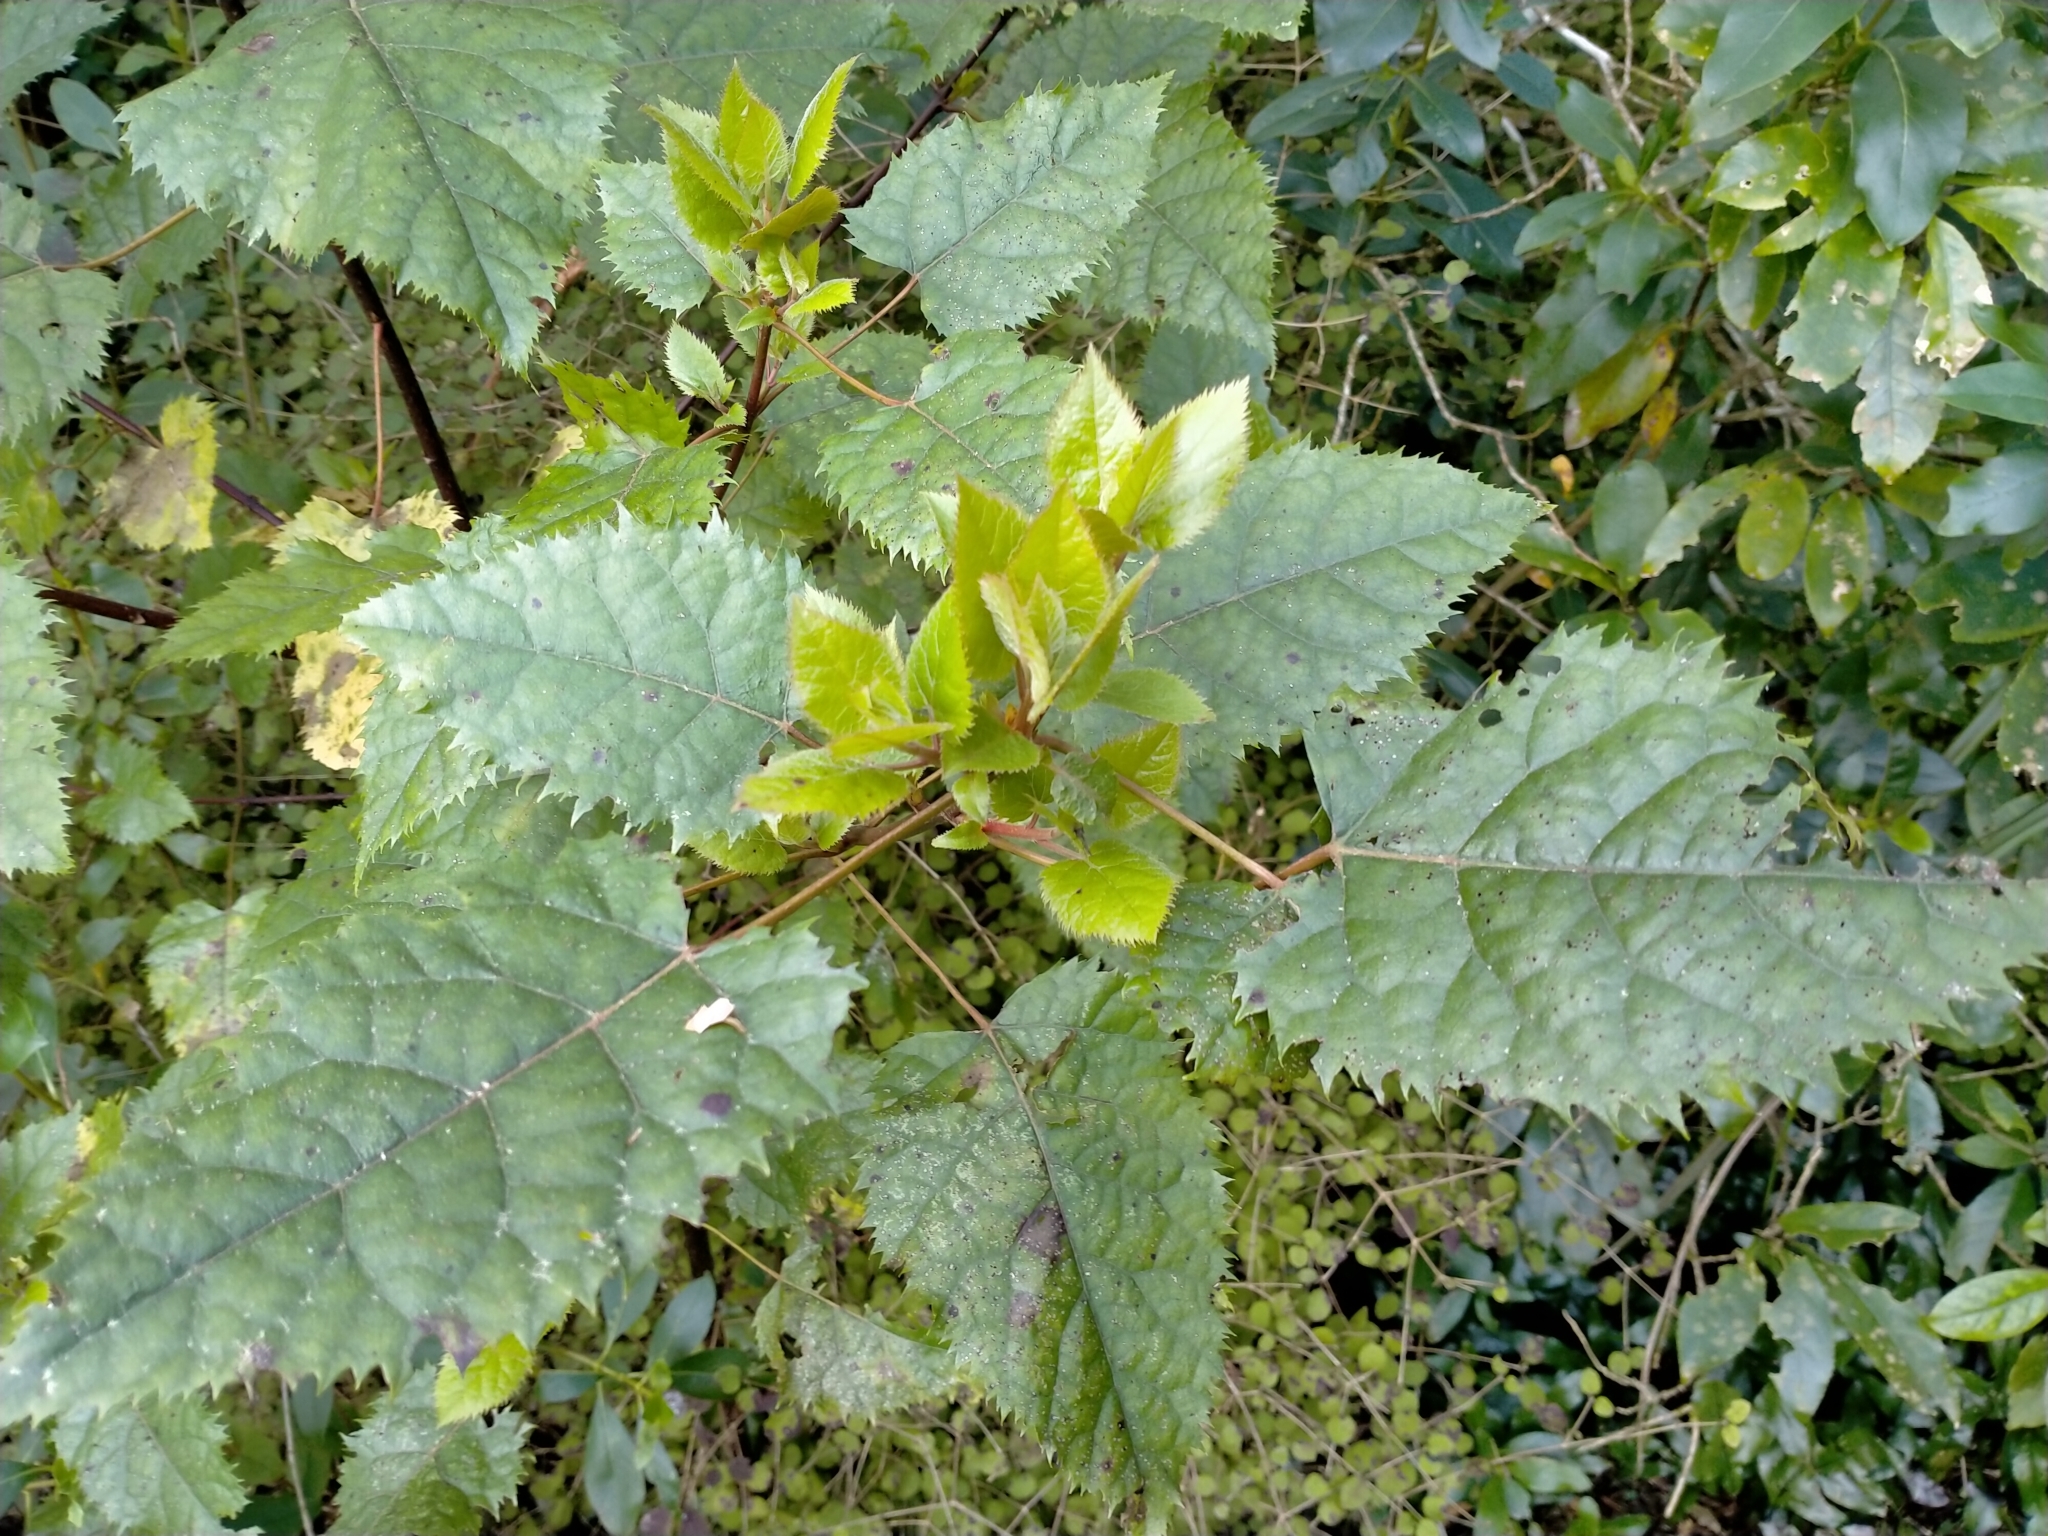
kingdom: Plantae
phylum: Tracheophyta
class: Magnoliopsida
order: Oxalidales
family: Elaeocarpaceae
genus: Aristotelia
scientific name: Aristotelia serrata
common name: New zealand wineberry
